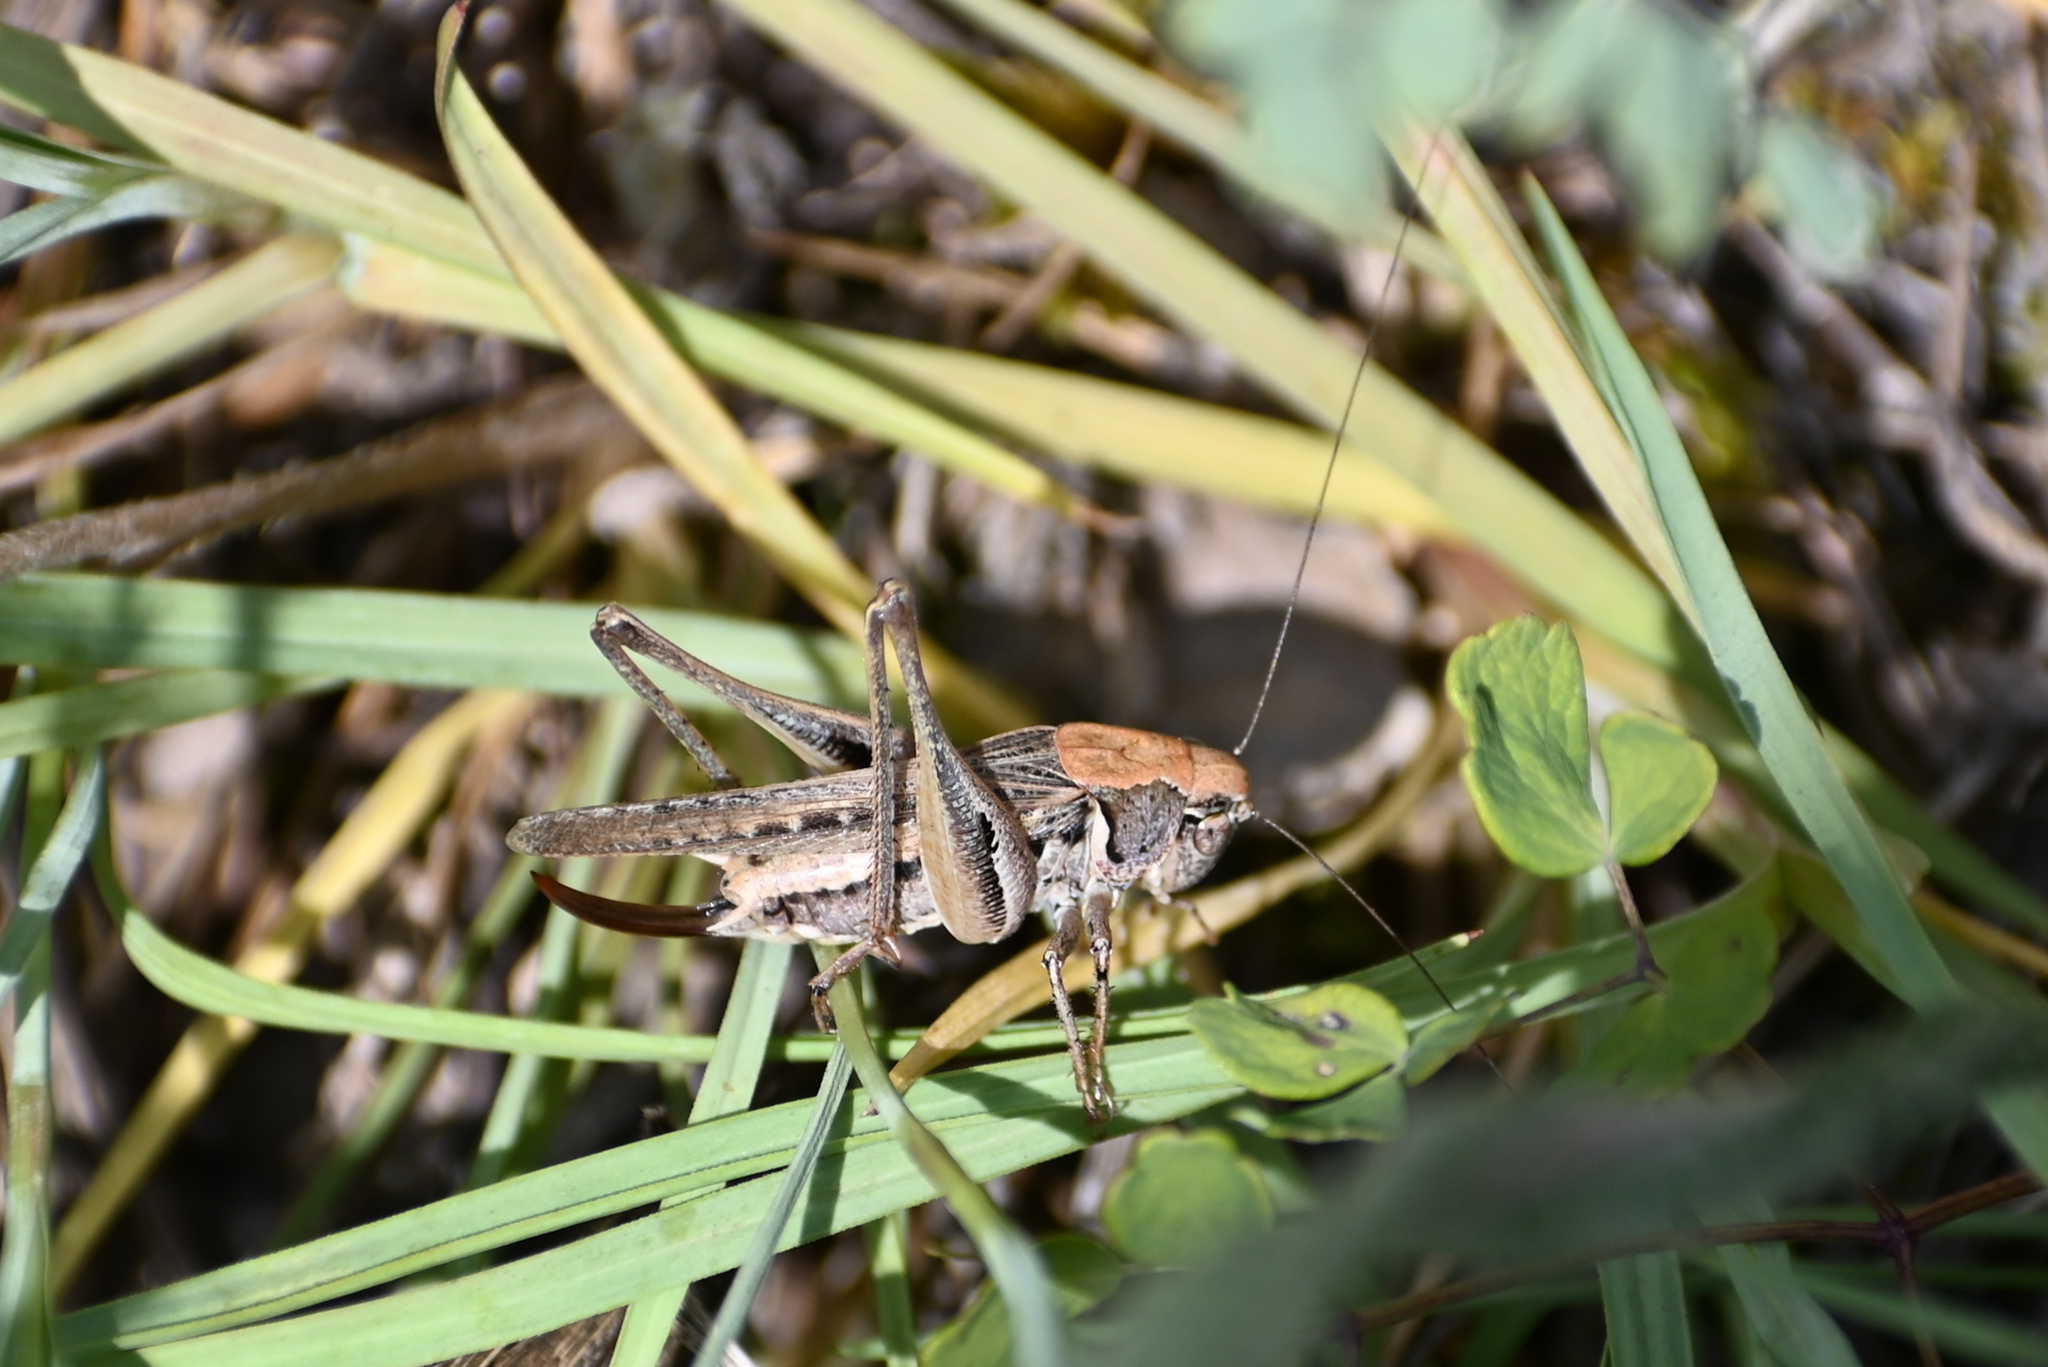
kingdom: Animalia
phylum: Arthropoda
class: Insecta
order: Orthoptera
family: Tettigoniidae
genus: Platycleis
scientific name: Platycleis albopunctata
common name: Grey bush-cricket
